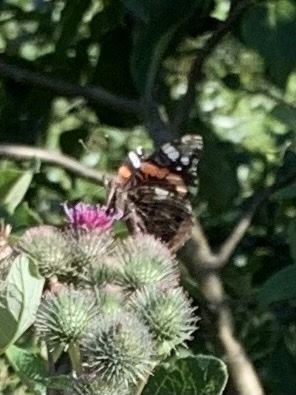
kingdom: Animalia
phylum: Arthropoda
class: Insecta
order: Lepidoptera
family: Nymphalidae
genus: Vanessa
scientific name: Vanessa atalanta
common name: Red admiral
